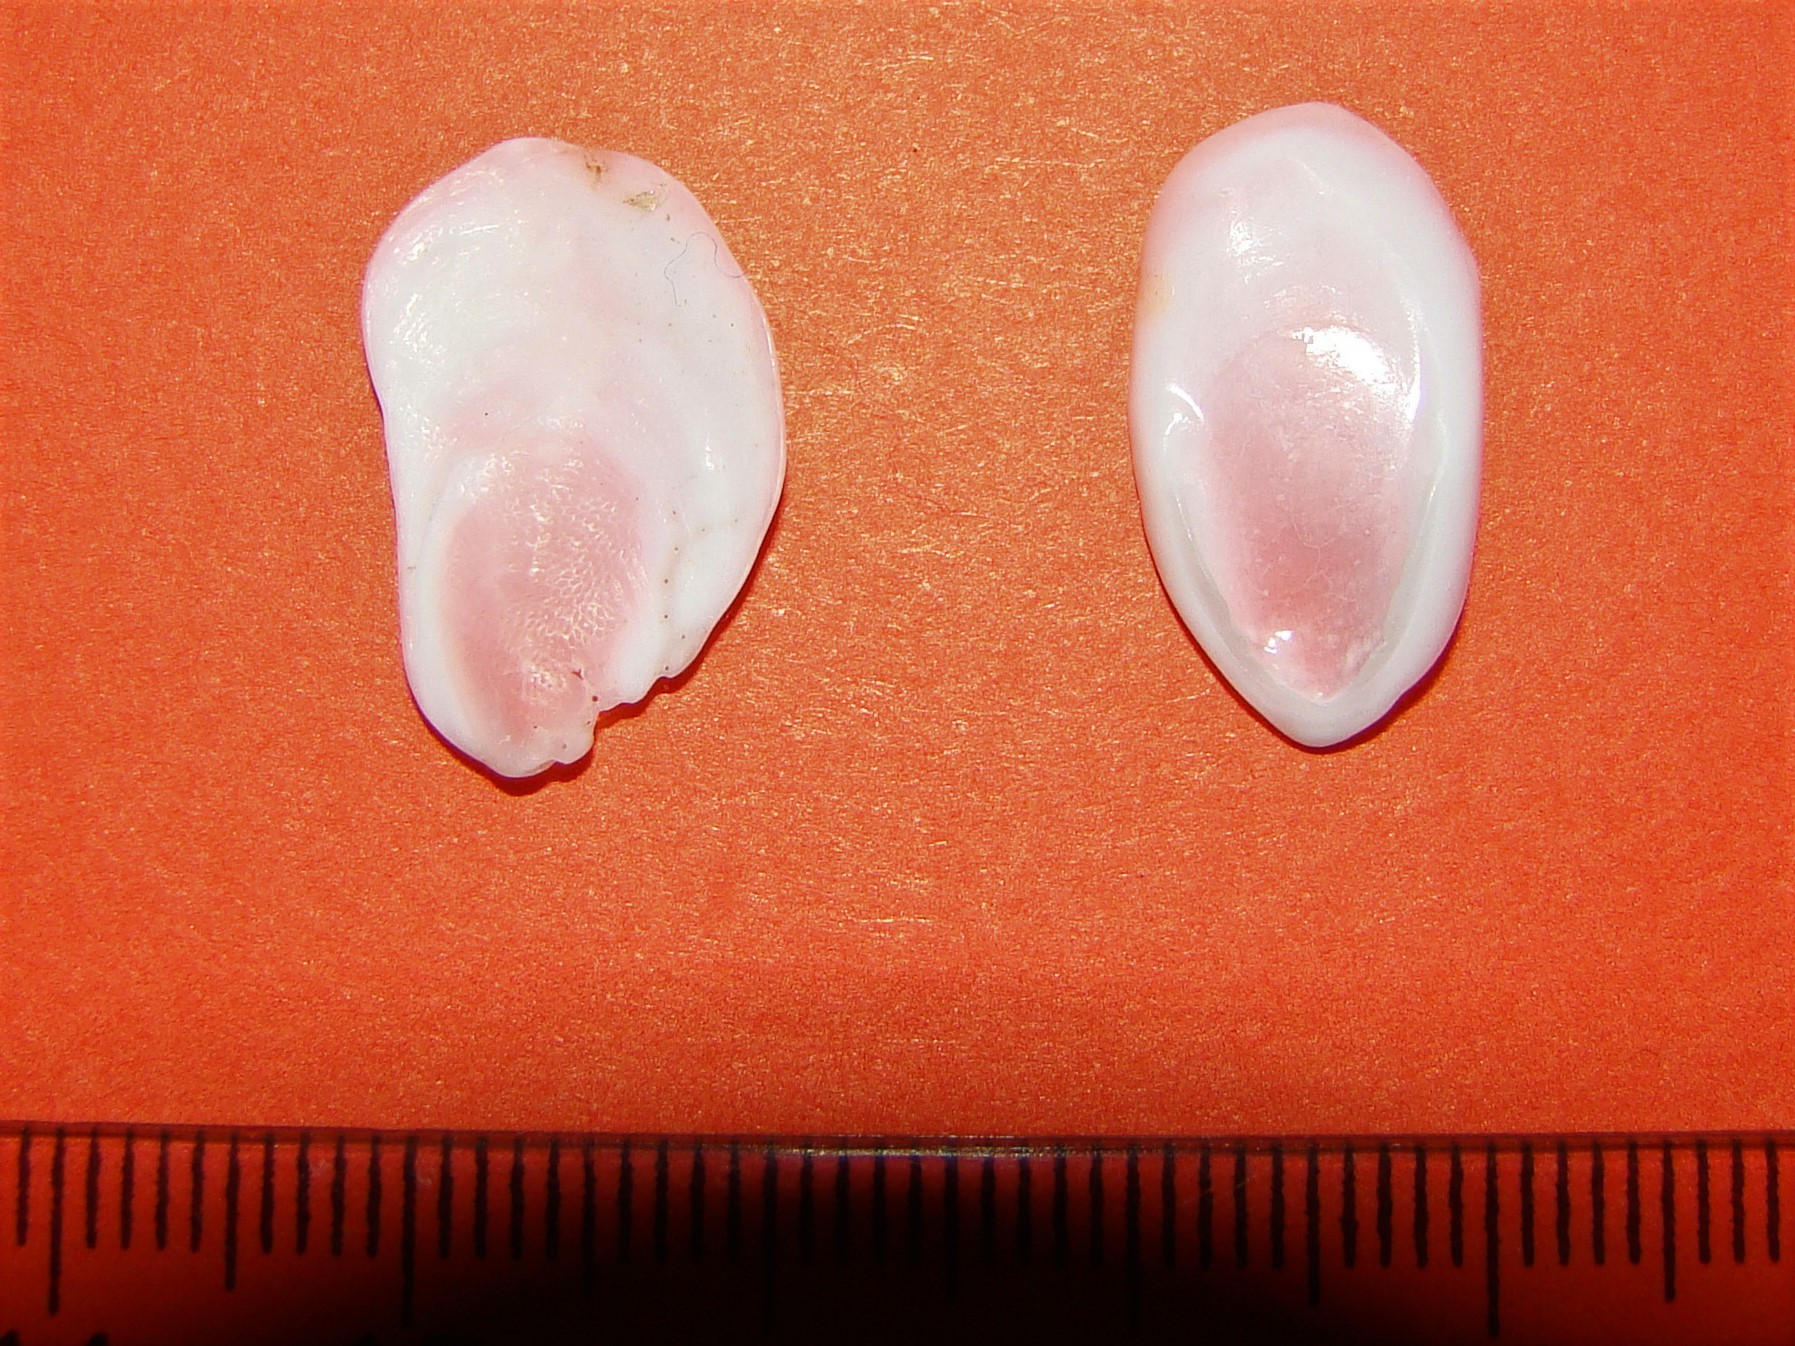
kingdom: Animalia
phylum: Mollusca
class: Gastropoda
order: Littorinimorpha
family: Calyptraeidae
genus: Maoricrypta
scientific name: Maoricrypta sodalis
